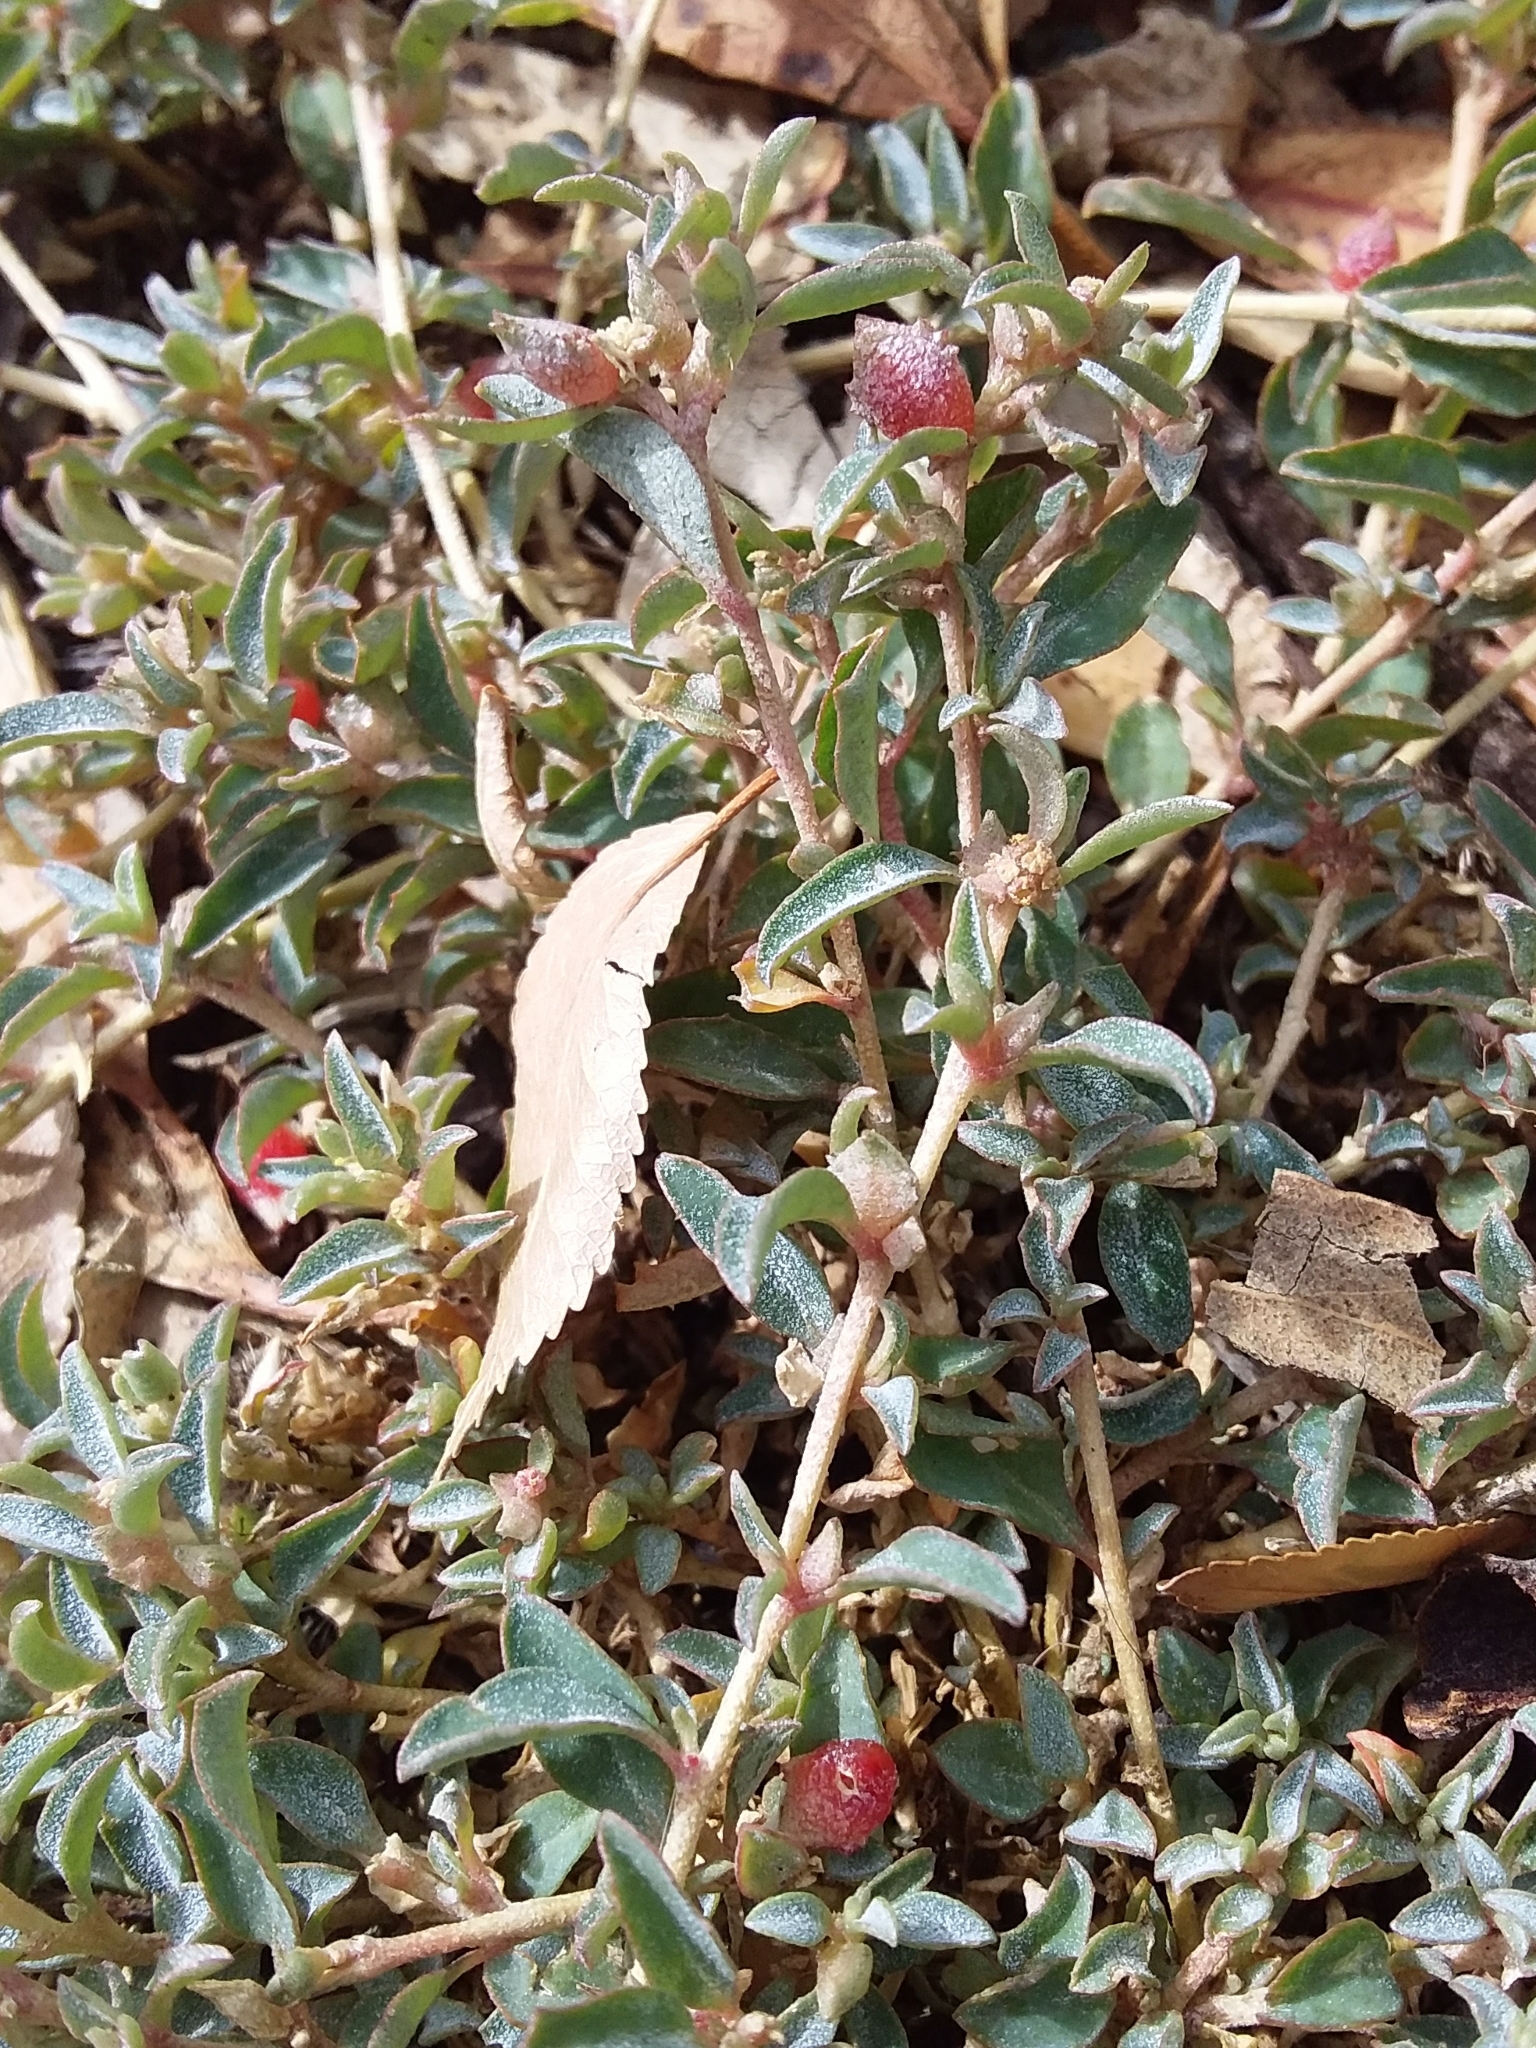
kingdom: Plantae
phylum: Tracheophyta
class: Magnoliopsida
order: Caryophyllales
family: Amaranthaceae
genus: Atriplex
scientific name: Atriplex semibaccata
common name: Australian saltbush
